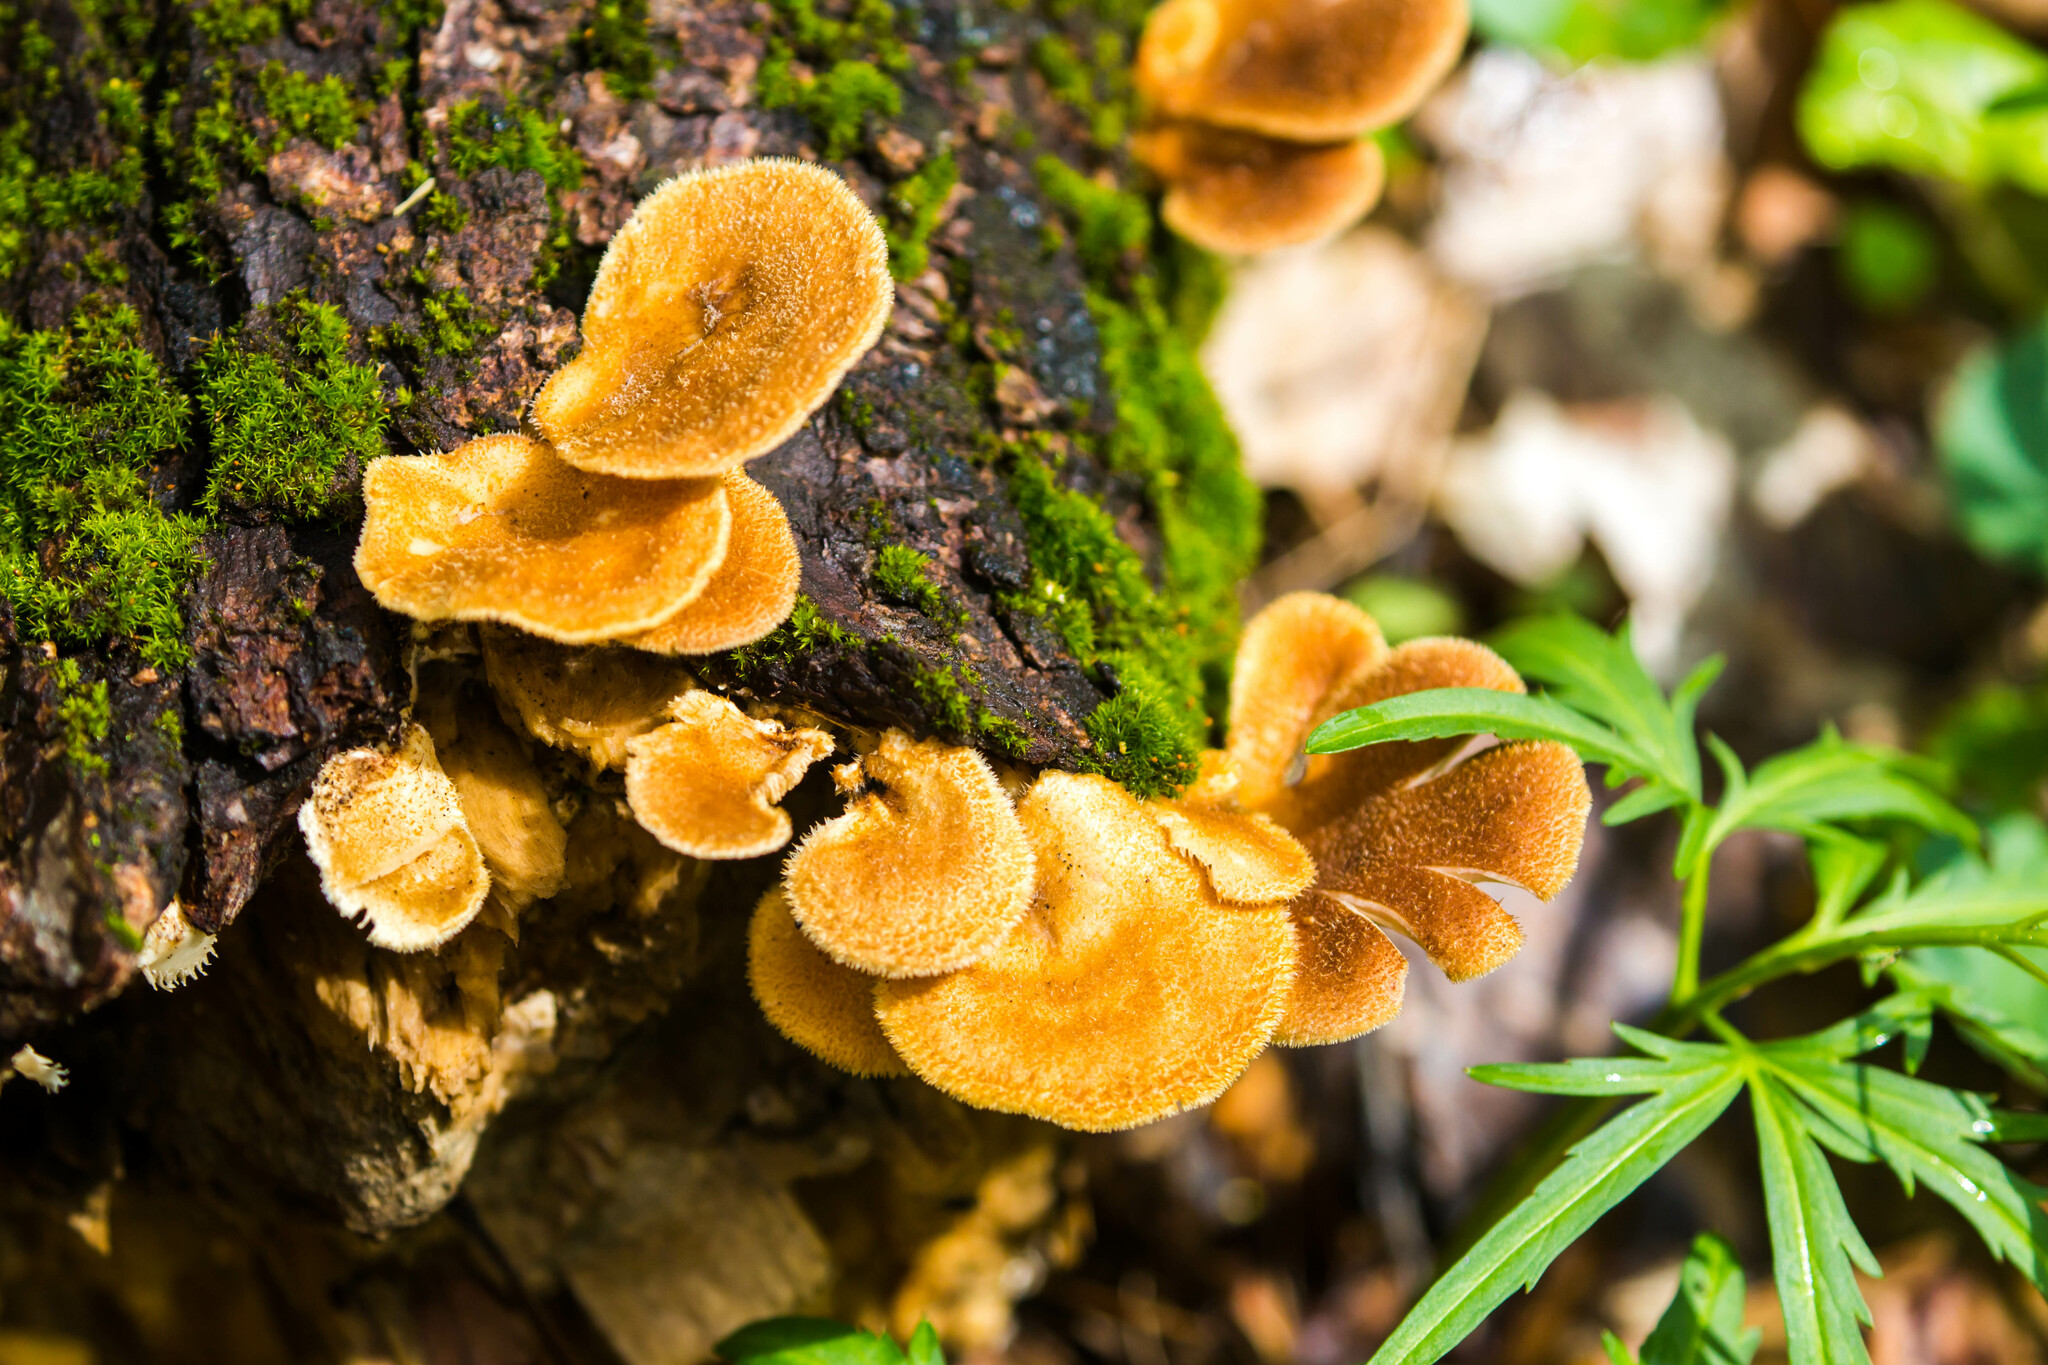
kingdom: Fungi
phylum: Basidiomycota
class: Agaricomycetes
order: Polyporales
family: Panaceae
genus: Panus
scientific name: Panus neostrigosus
